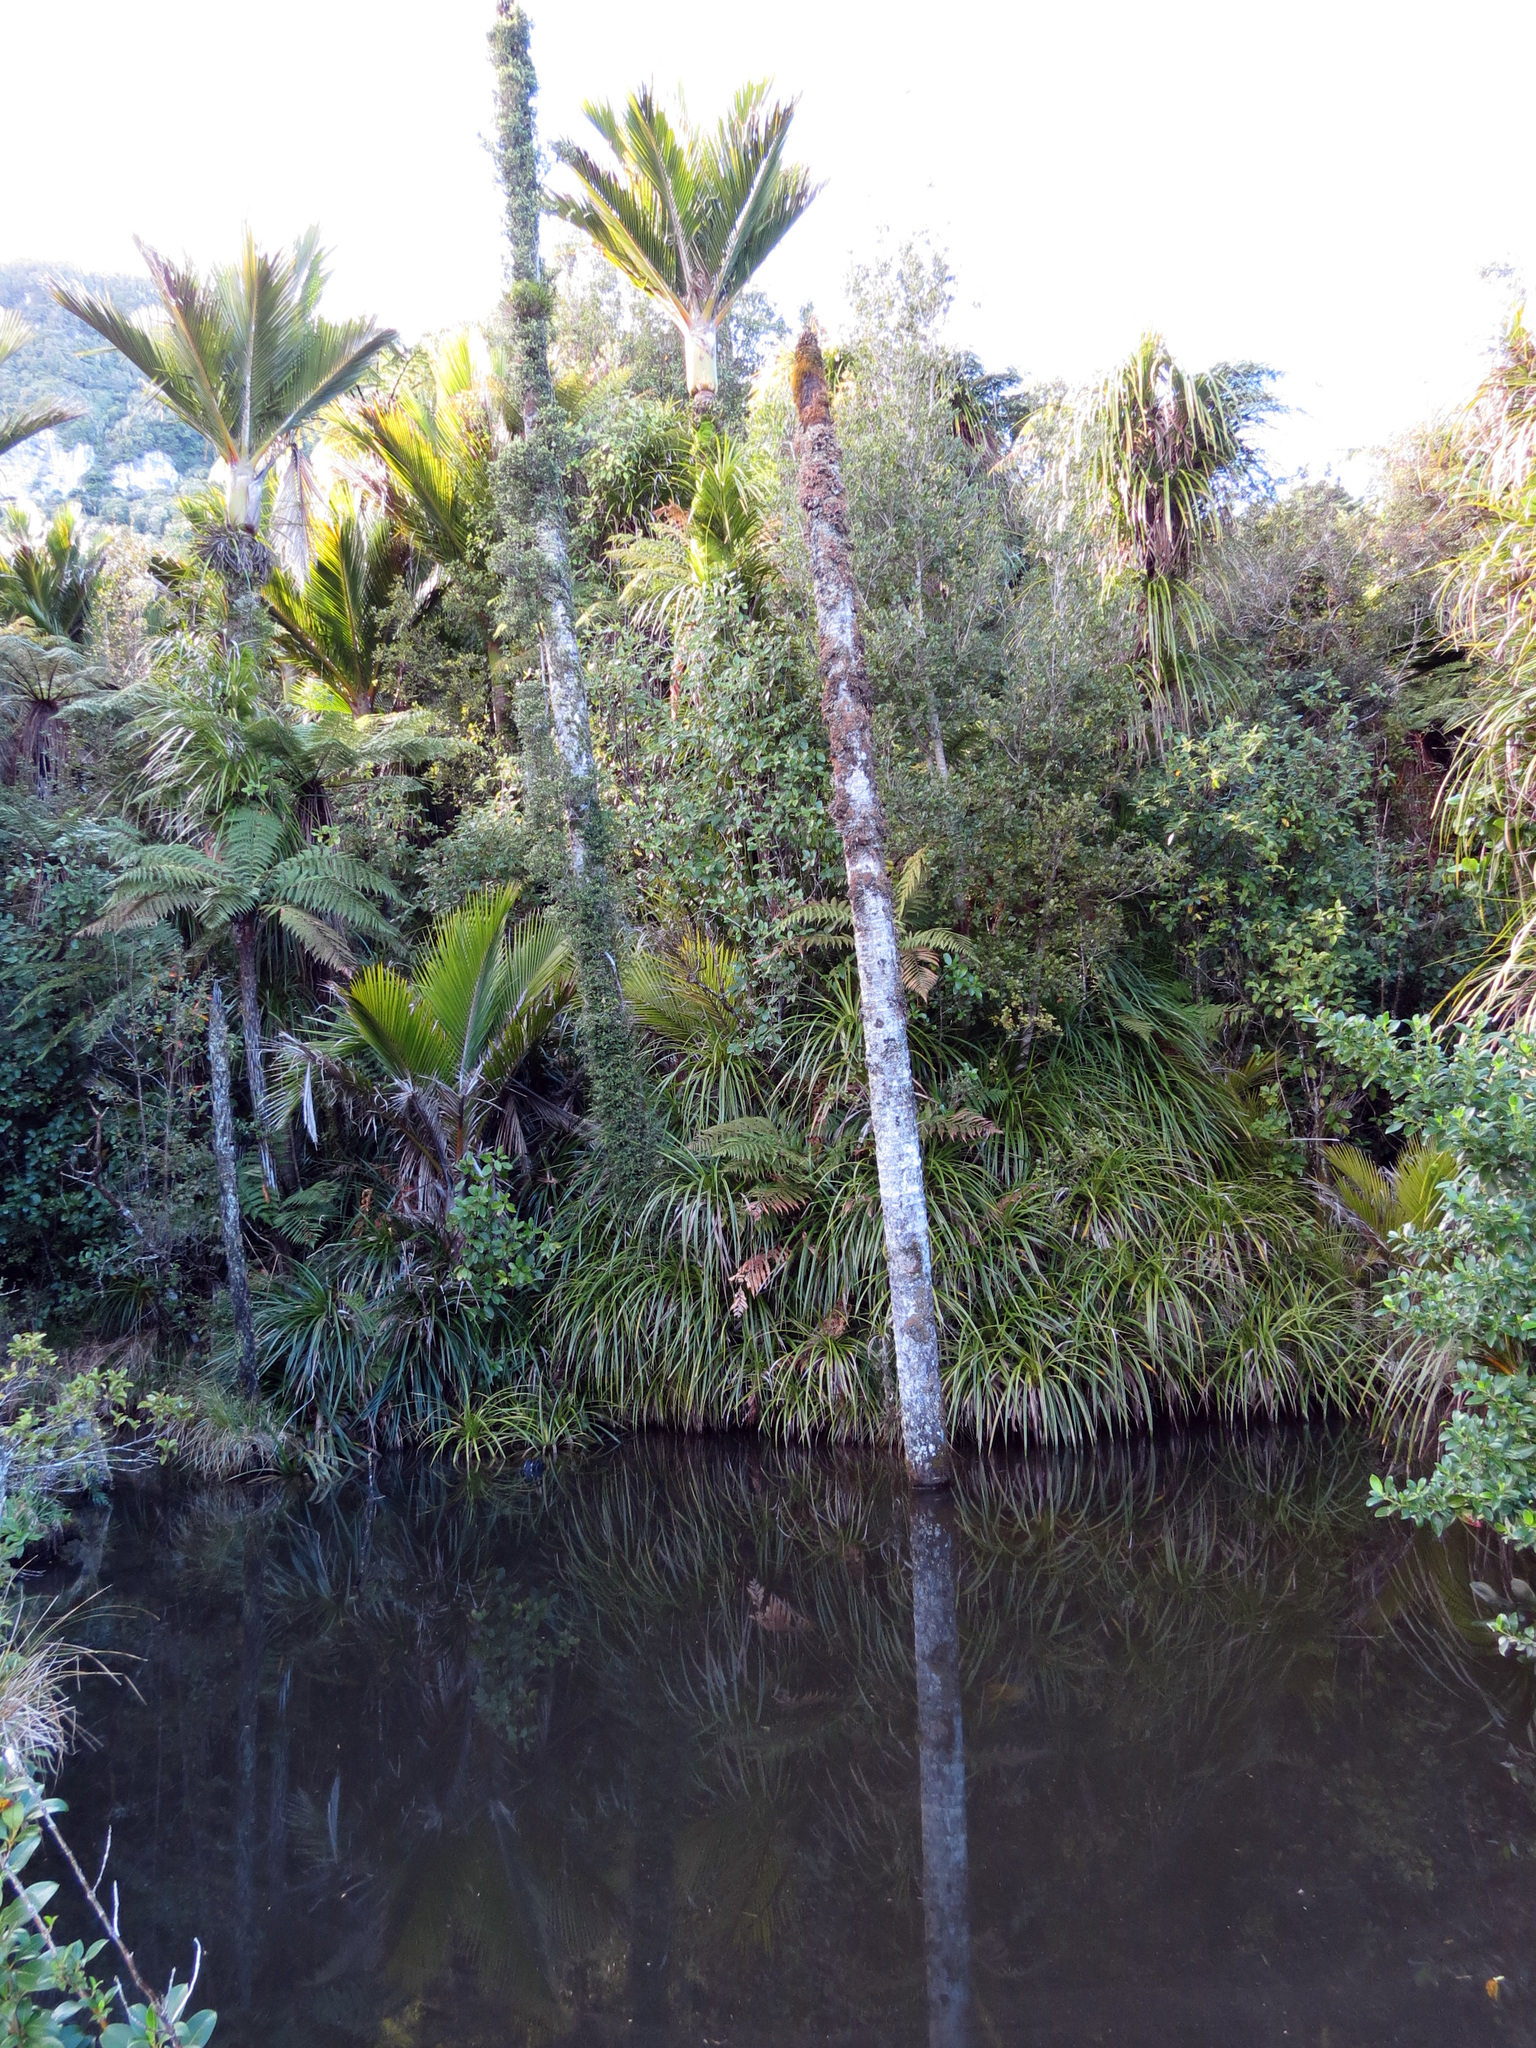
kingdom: Plantae
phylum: Tracheophyta
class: Liliopsida
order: Arecales
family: Arecaceae
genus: Rhopalostylis
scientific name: Rhopalostylis sapida
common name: Feather-duster palm
